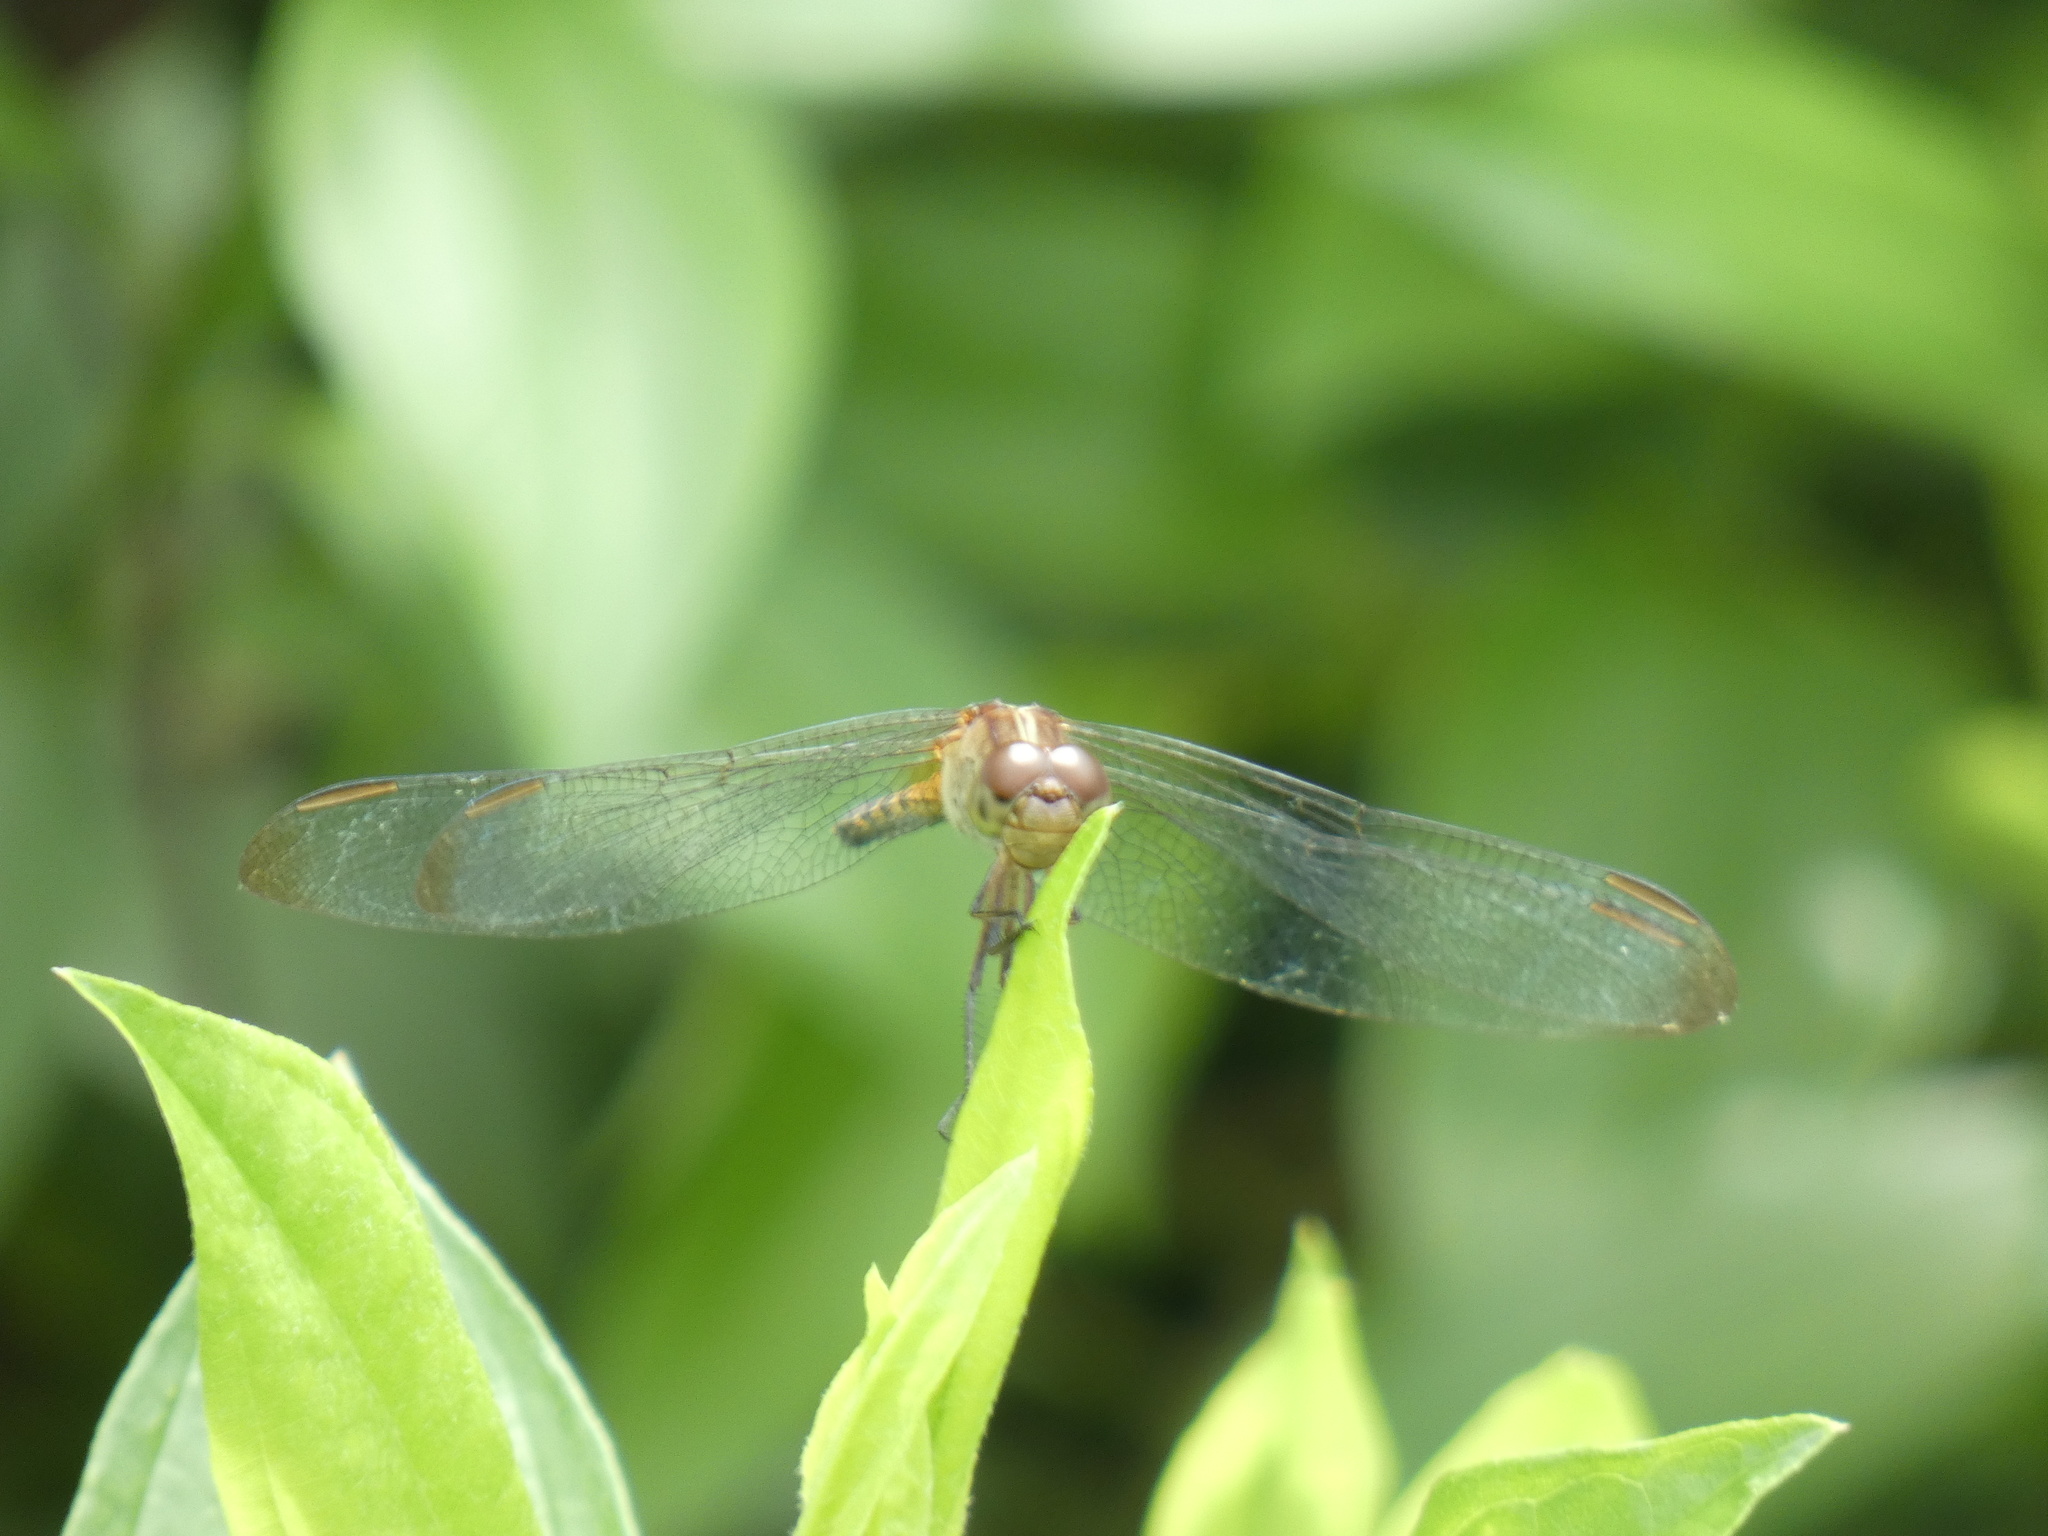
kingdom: Animalia
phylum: Arthropoda
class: Insecta
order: Odonata
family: Libellulidae
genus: Erythrodiplax
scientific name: Erythrodiplax umbrata
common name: Band-winged dragonlet
